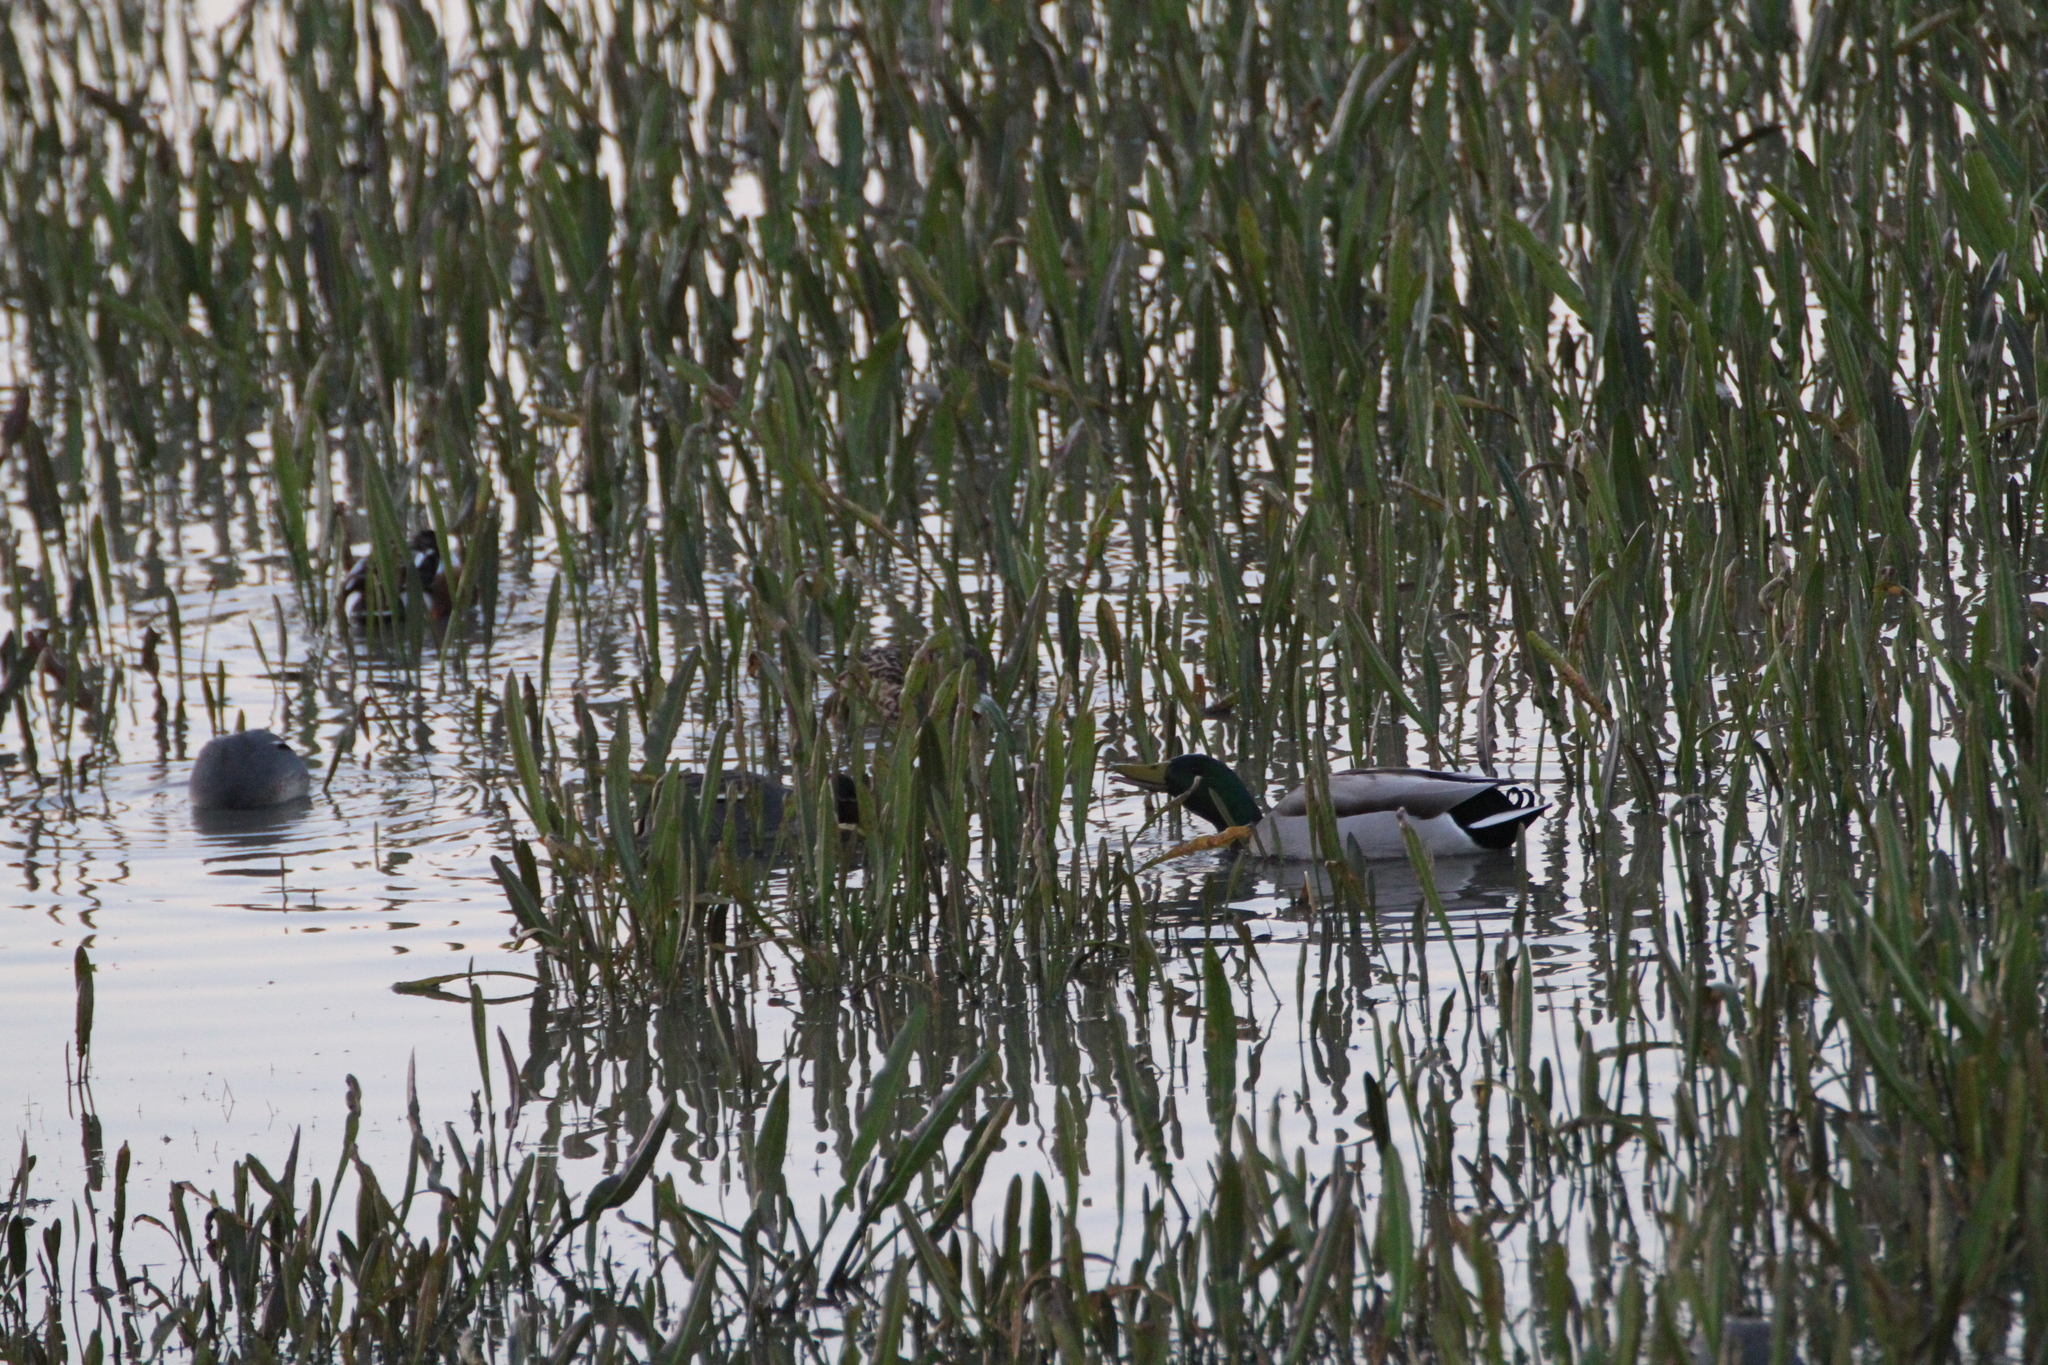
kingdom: Animalia
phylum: Chordata
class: Aves
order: Anseriformes
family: Anatidae
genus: Anas
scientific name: Anas platyrhynchos
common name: Mallard
